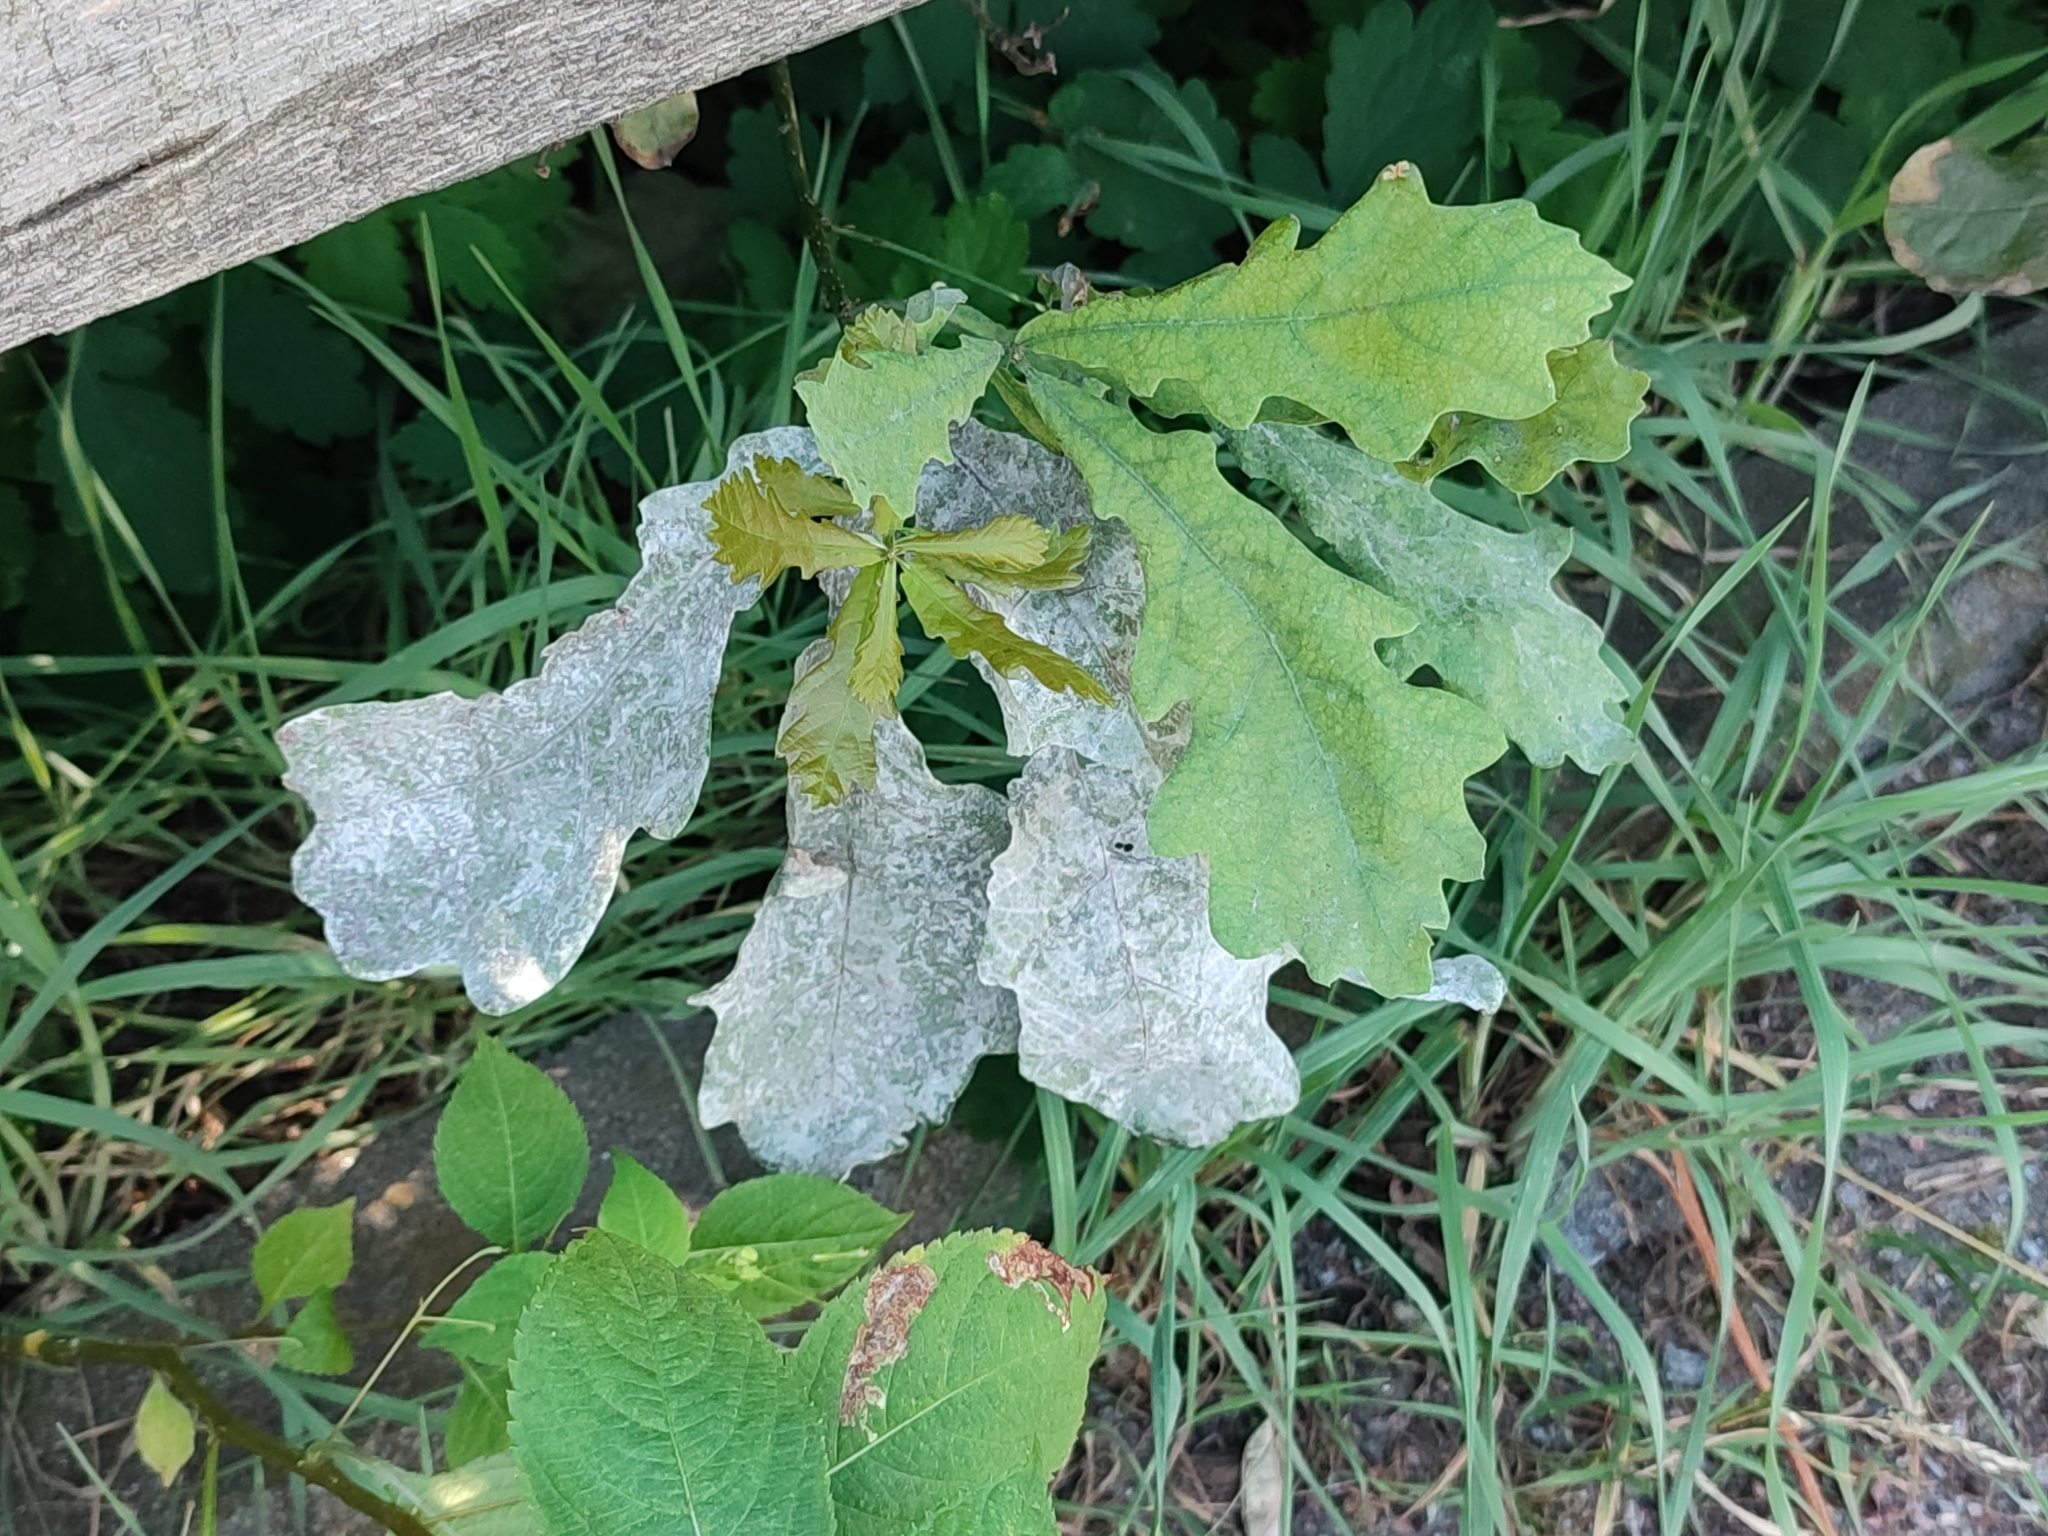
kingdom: Fungi
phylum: Ascomycota
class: Leotiomycetes
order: Helotiales
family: Erysiphaceae
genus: Erysiphe
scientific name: Erysiphe alphitoides
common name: Oak mildew
